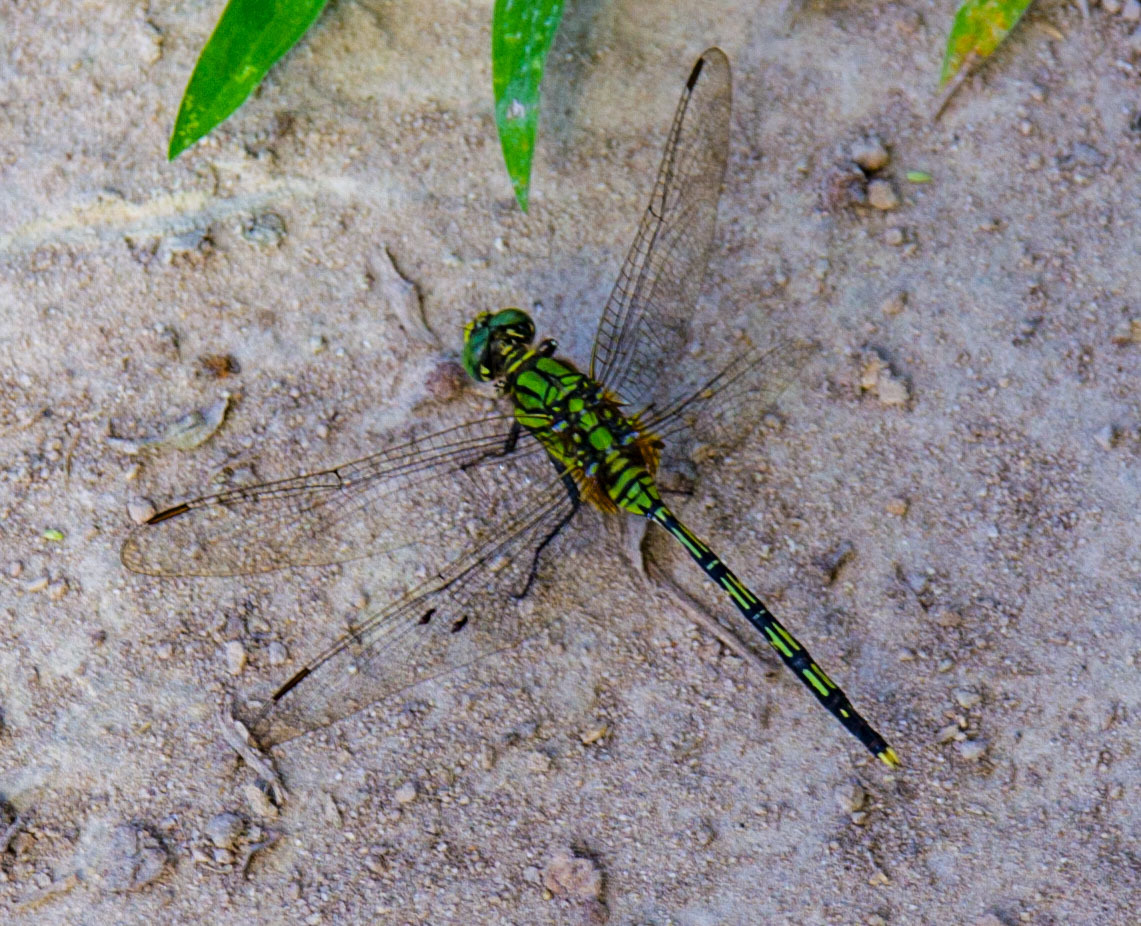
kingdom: Animalia
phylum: Arthropoda
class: Insecta
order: Odonata
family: Libellulidae
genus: Orthetrum
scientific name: Orthetrum serapia
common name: Green skimmer
